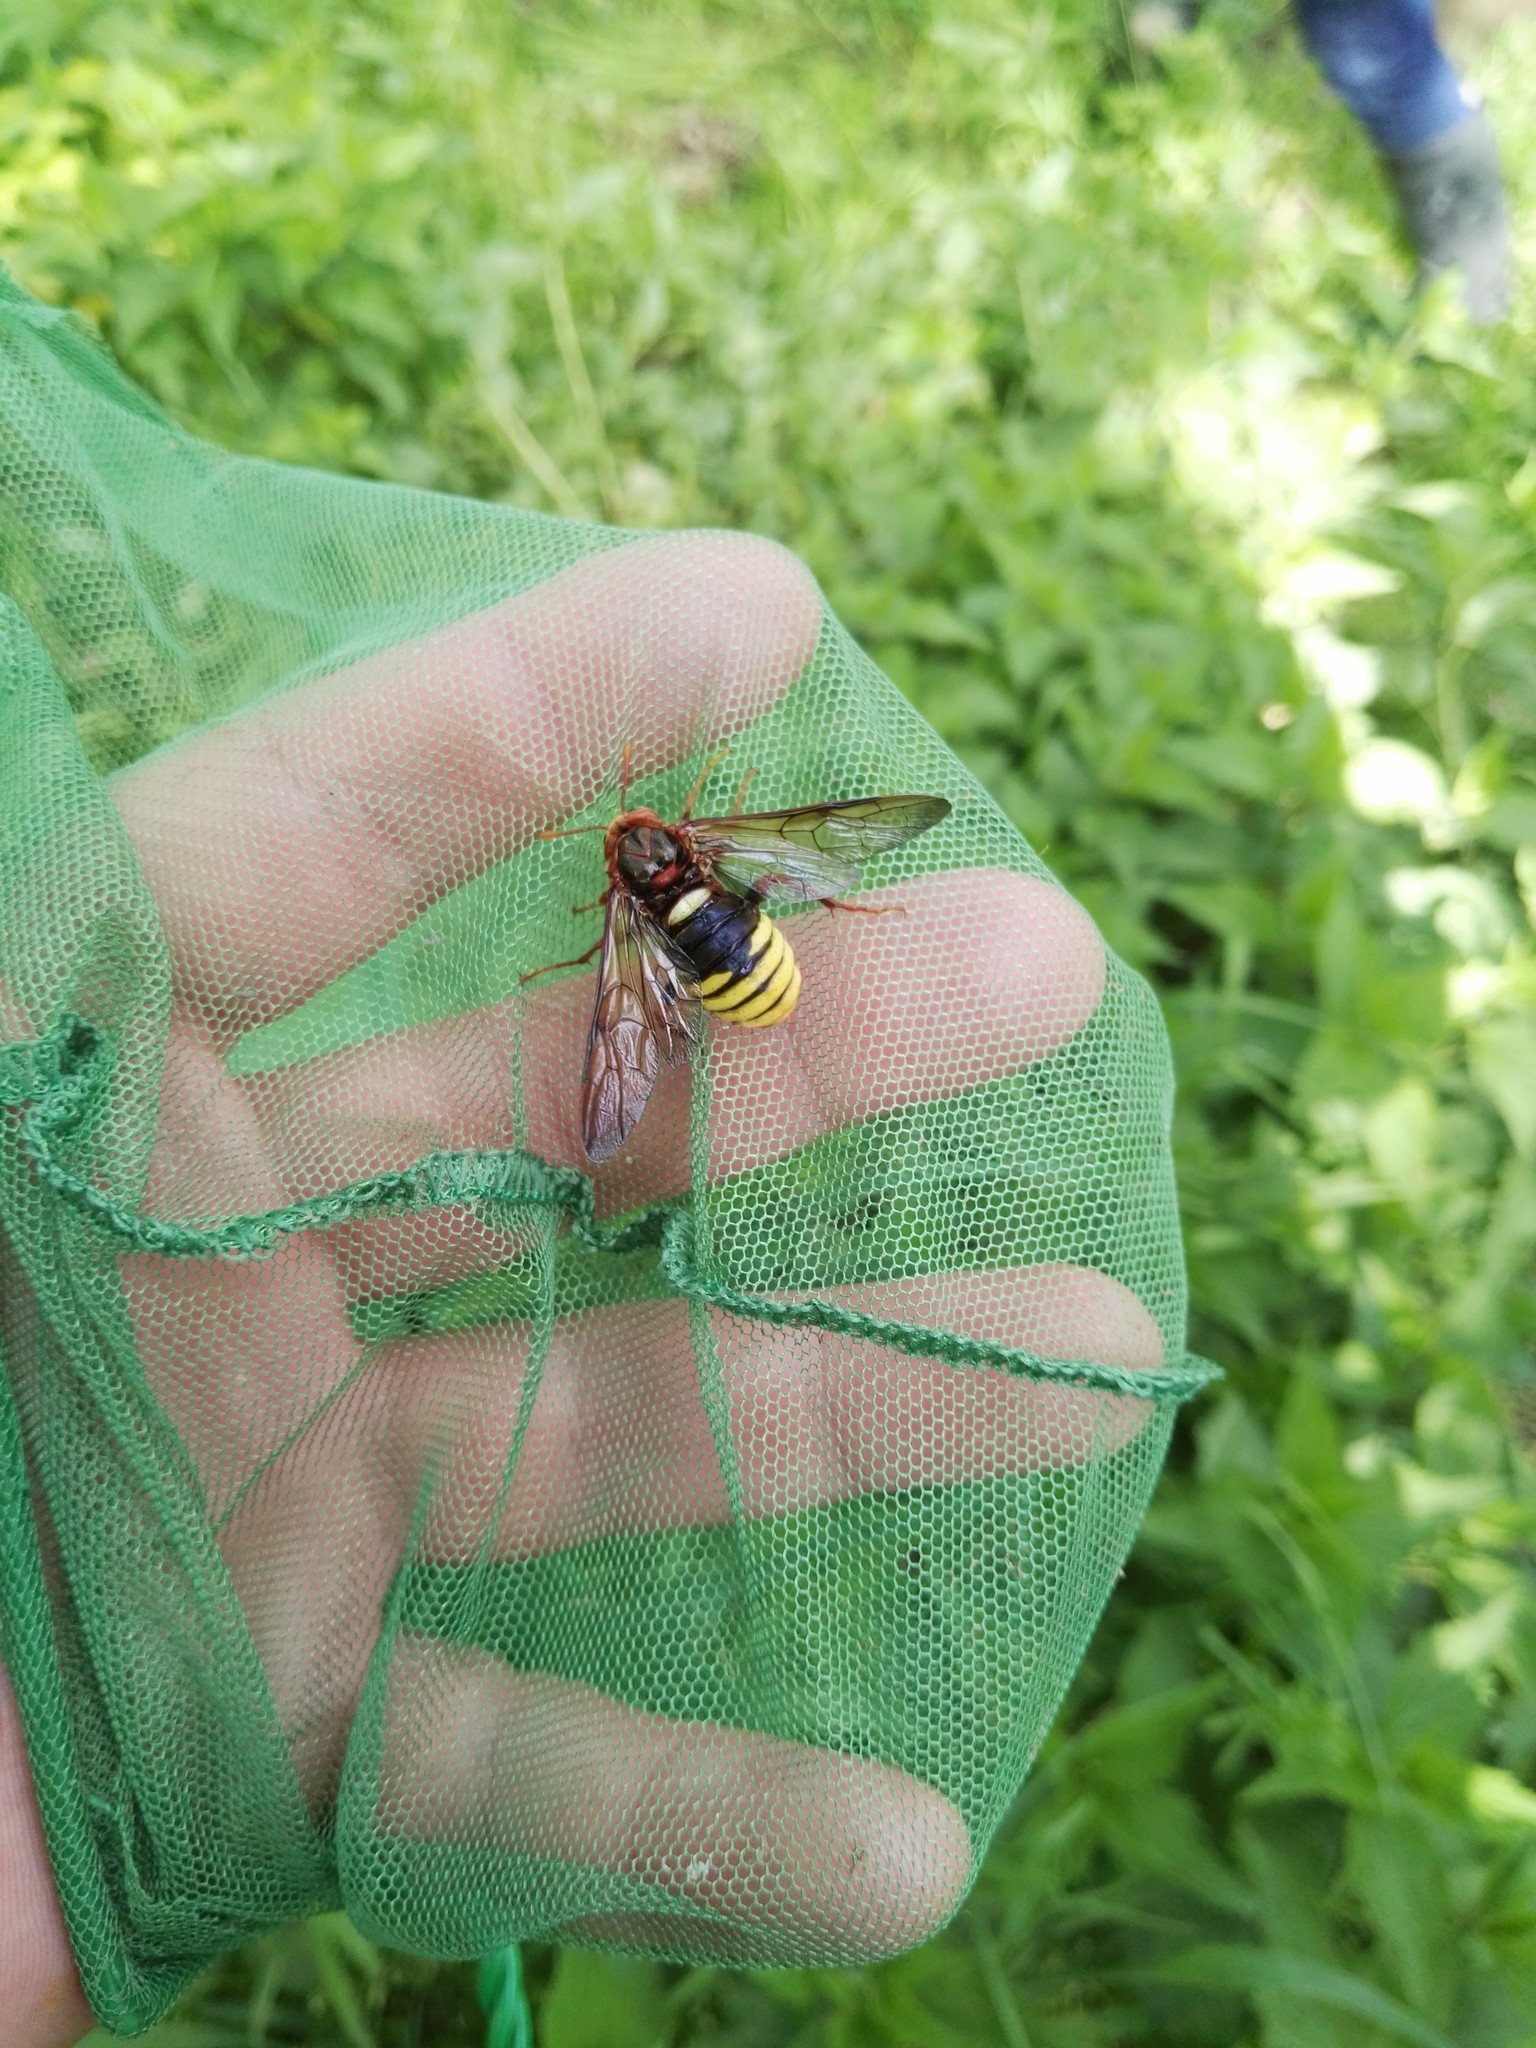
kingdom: Animalia
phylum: Arthropoda
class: Insecta
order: Hymenoptera
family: Cimbicidae
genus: Cimbex
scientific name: Cimbex connatus
